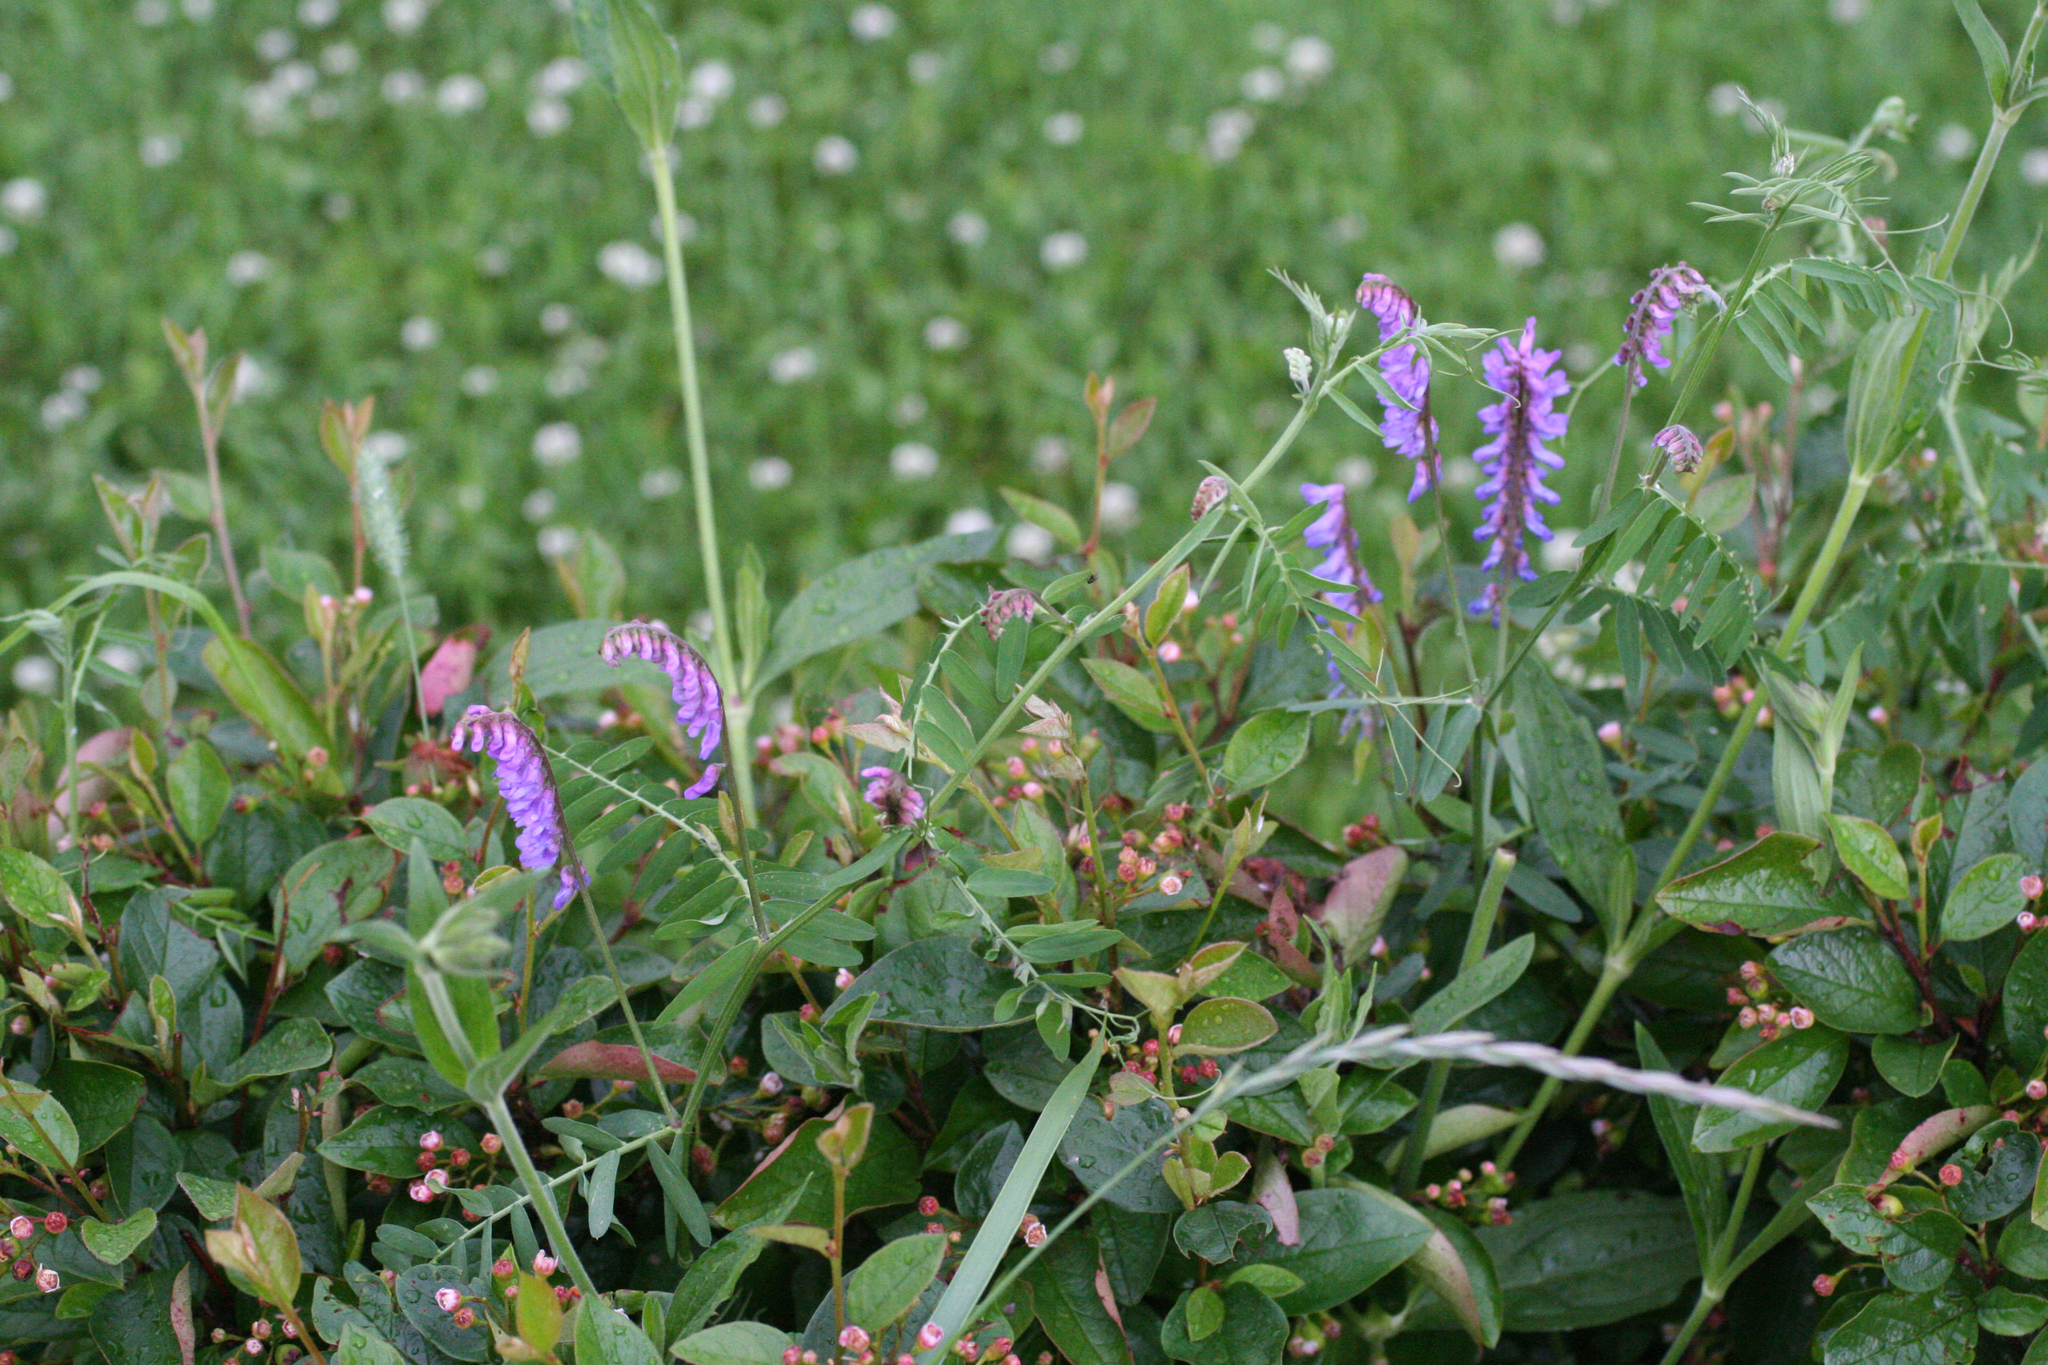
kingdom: Plantae
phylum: Tracheophyta
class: Magnoliopsida
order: Fabales
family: Fabaceae
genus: Vicia
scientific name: Vicia cracca
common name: Bird vetch
